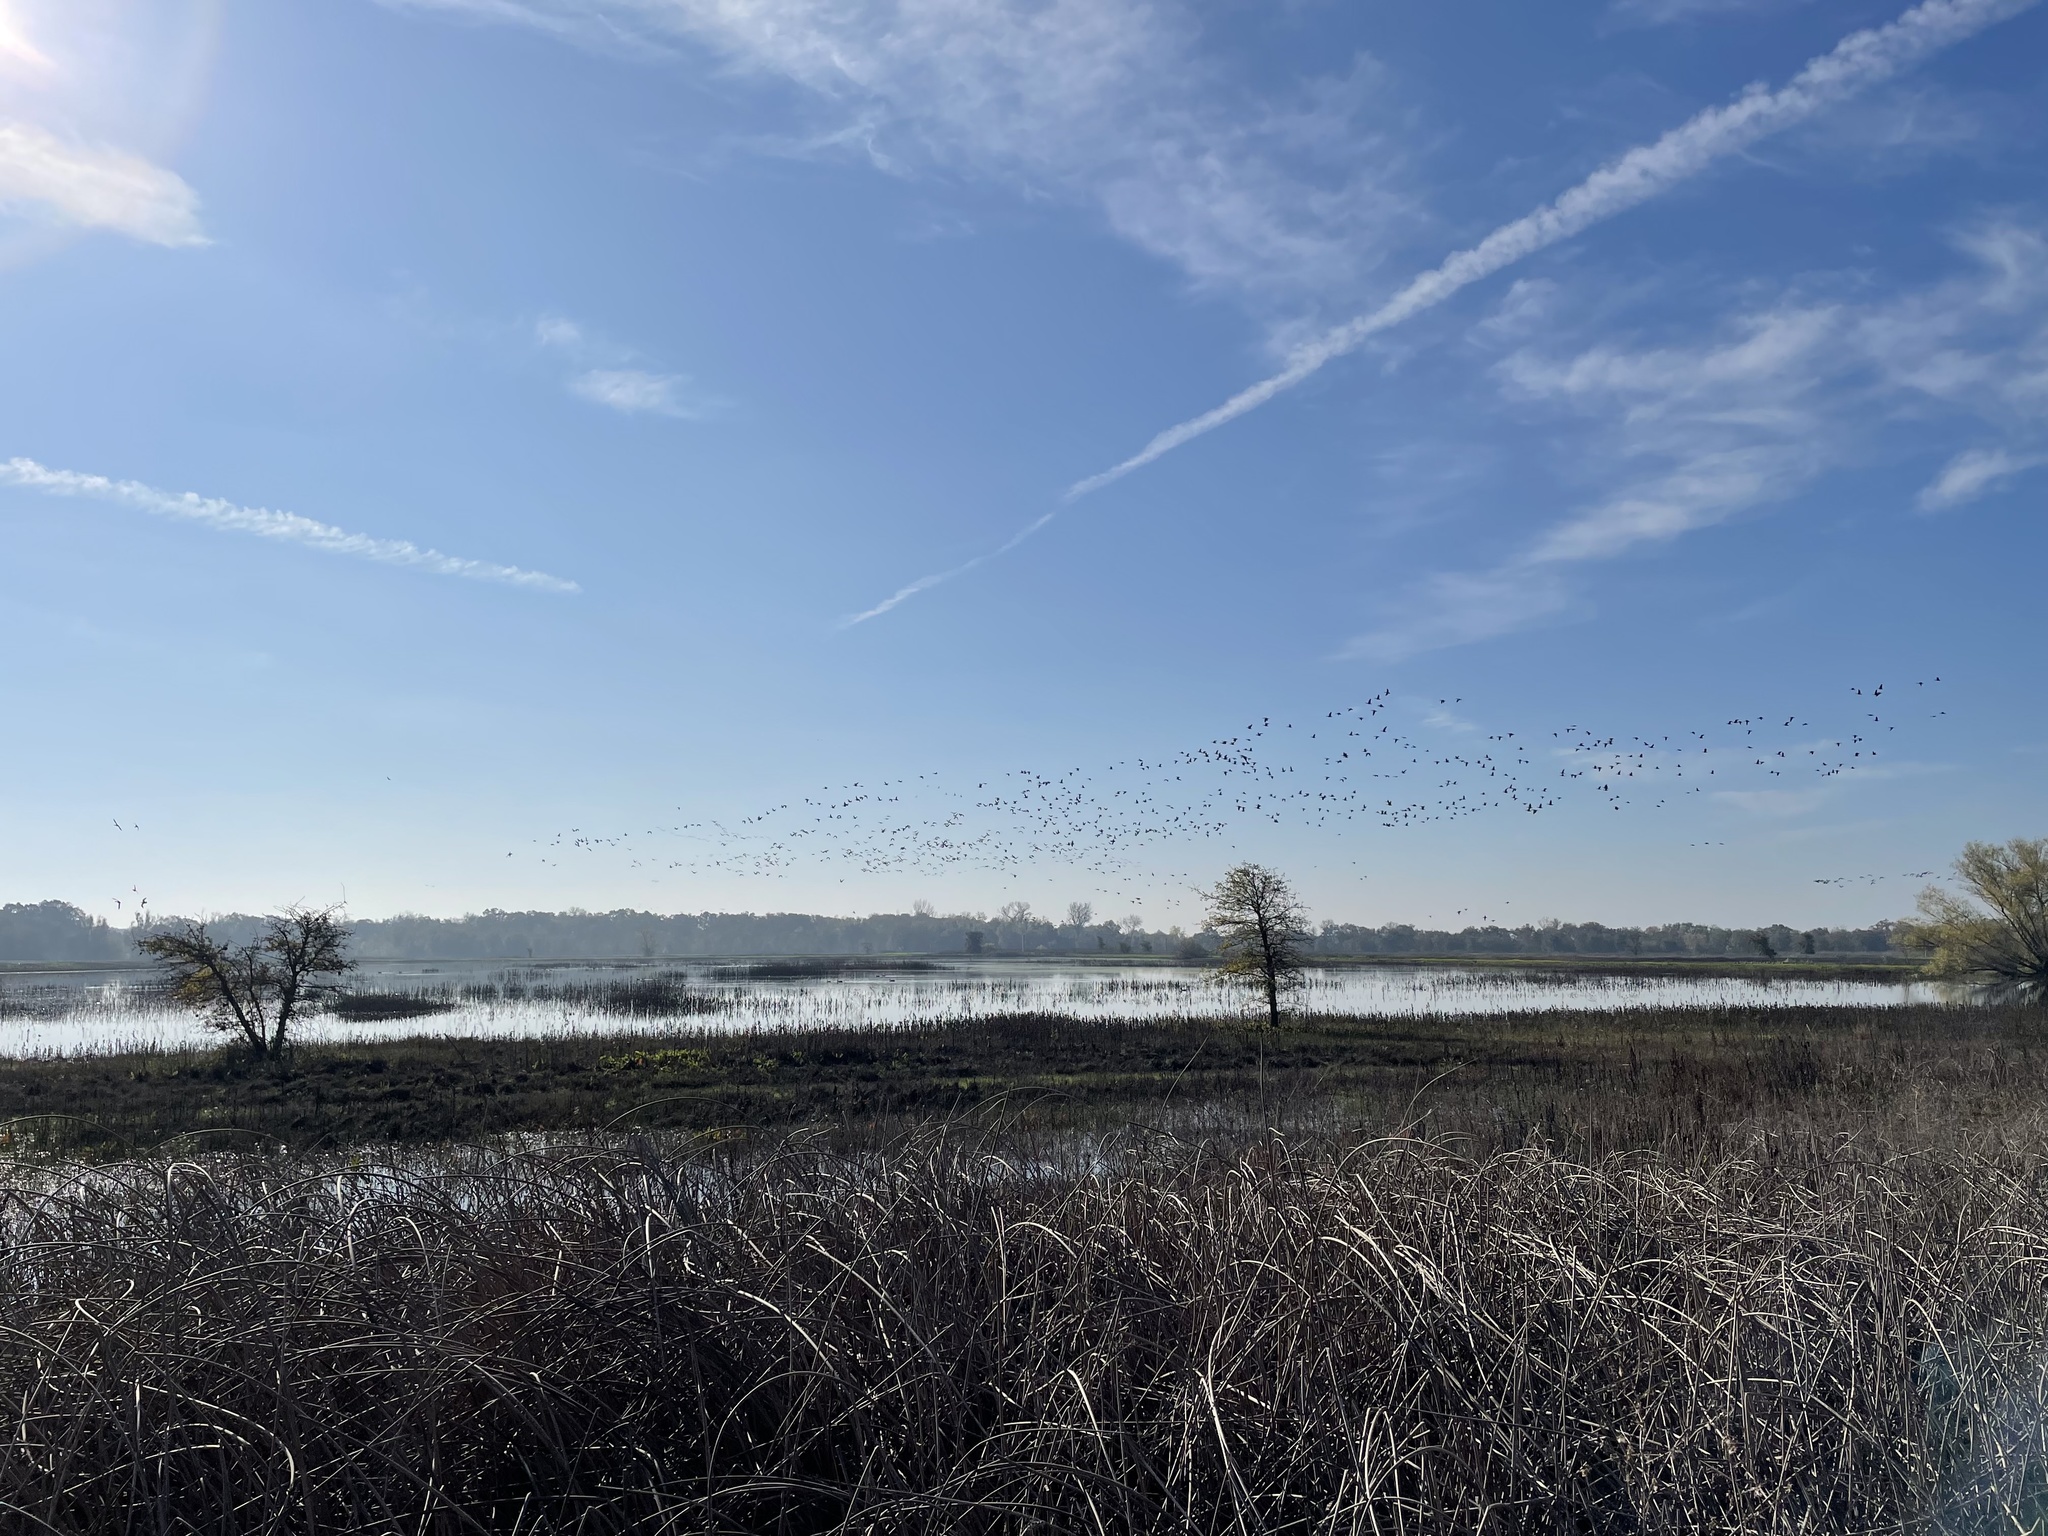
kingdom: Animalia
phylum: Chordata
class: Aves
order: Anseriformes
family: Anatidae
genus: Branta
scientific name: Branta canadensis
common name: Canada goose
